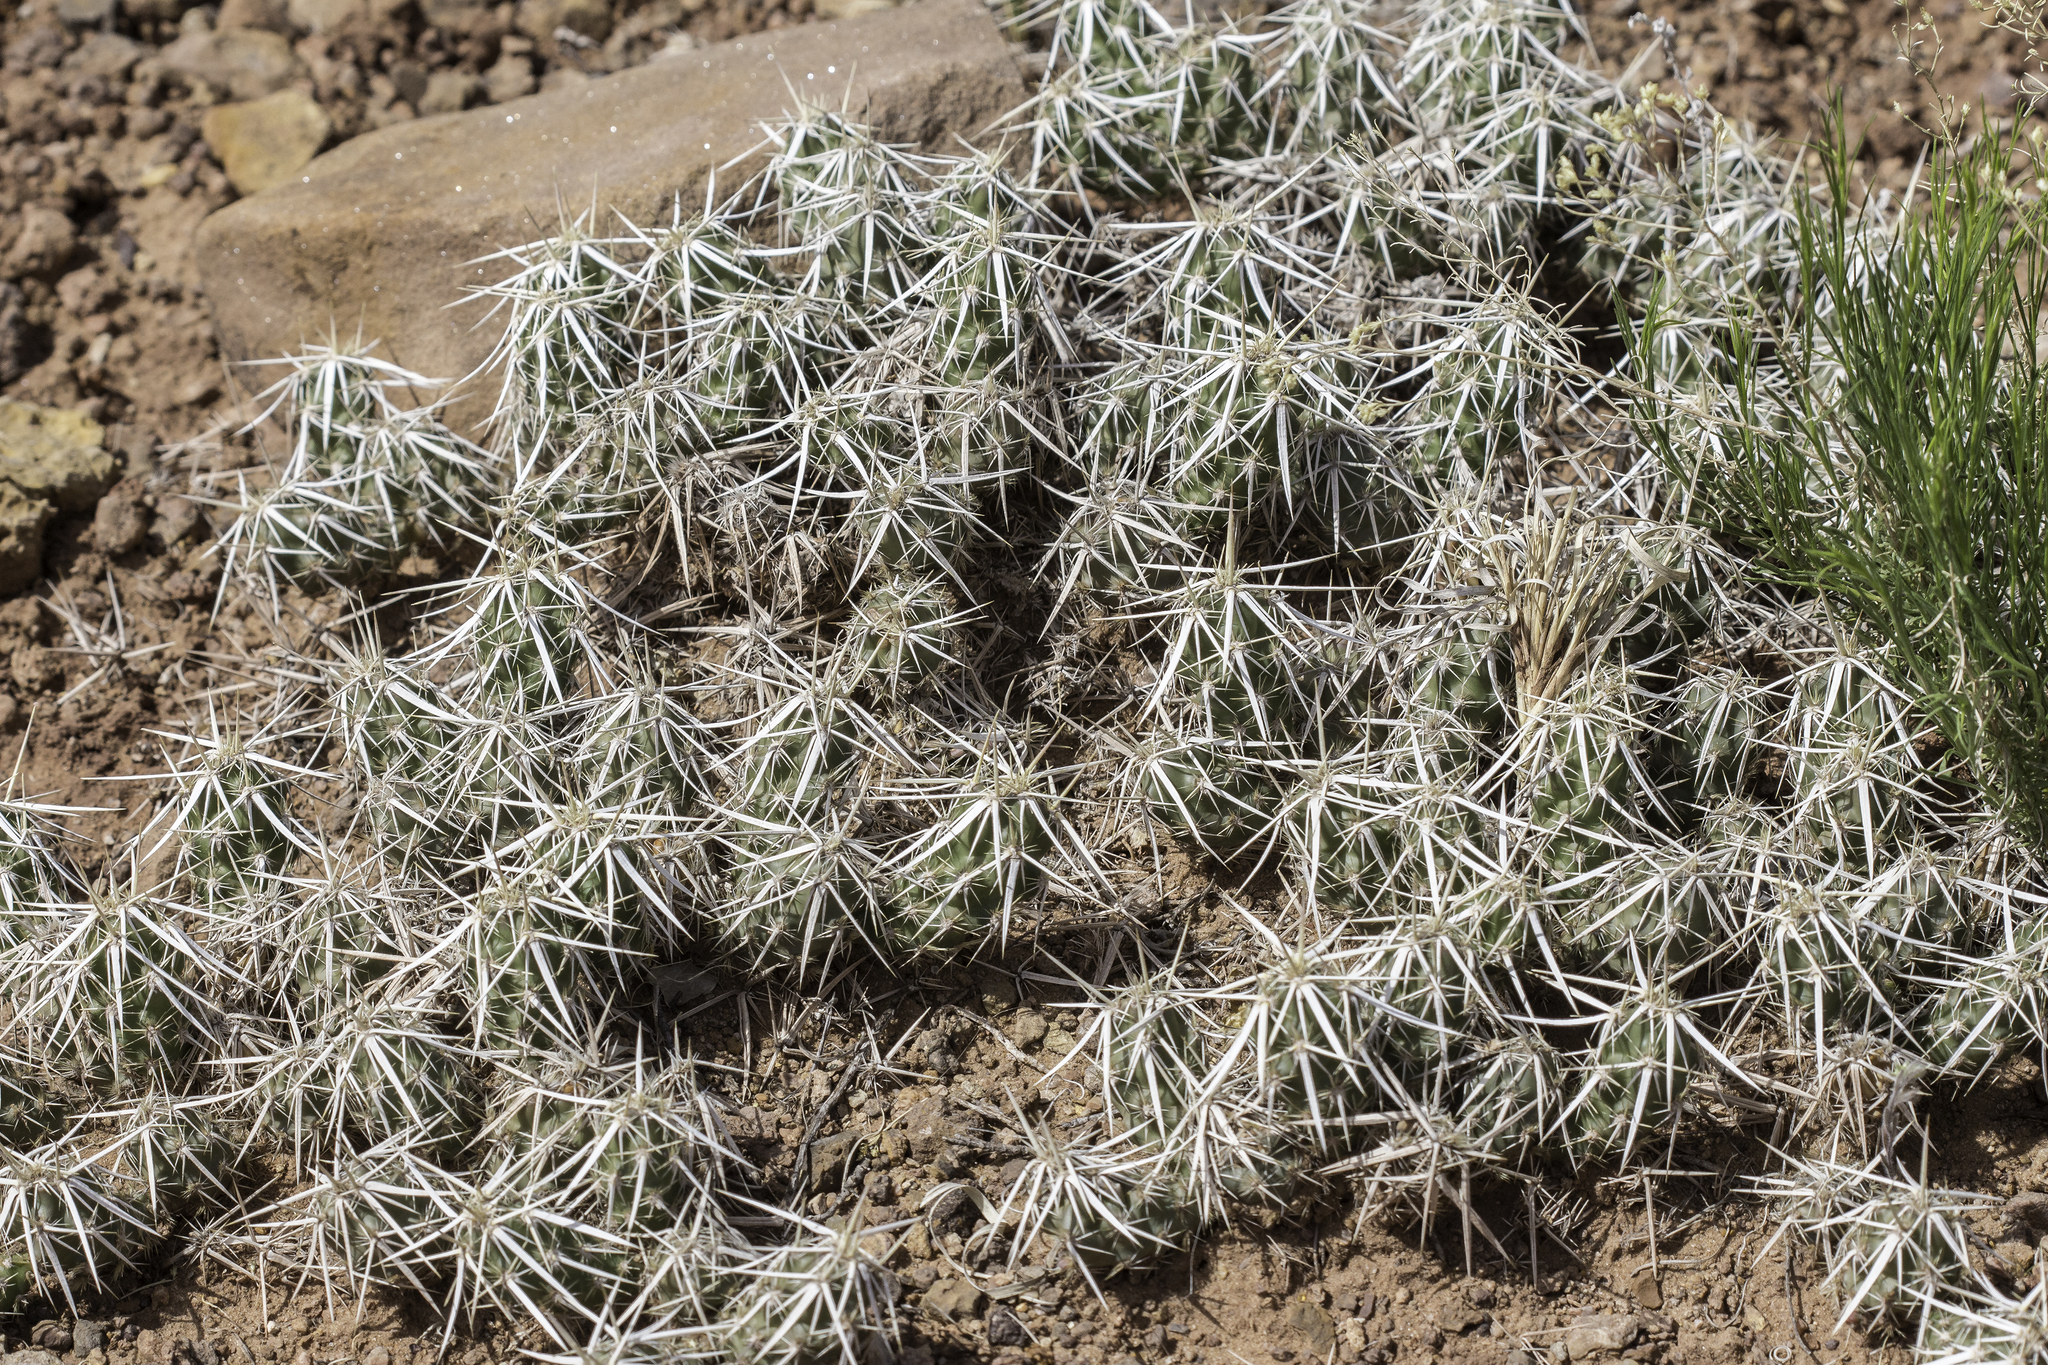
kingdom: Plantae
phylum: Tracheophyta
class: Magnoliopsida
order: Caryophyllales
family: Cactaceae
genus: Grusonia
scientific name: Grusonia clavata
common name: Club cholla
